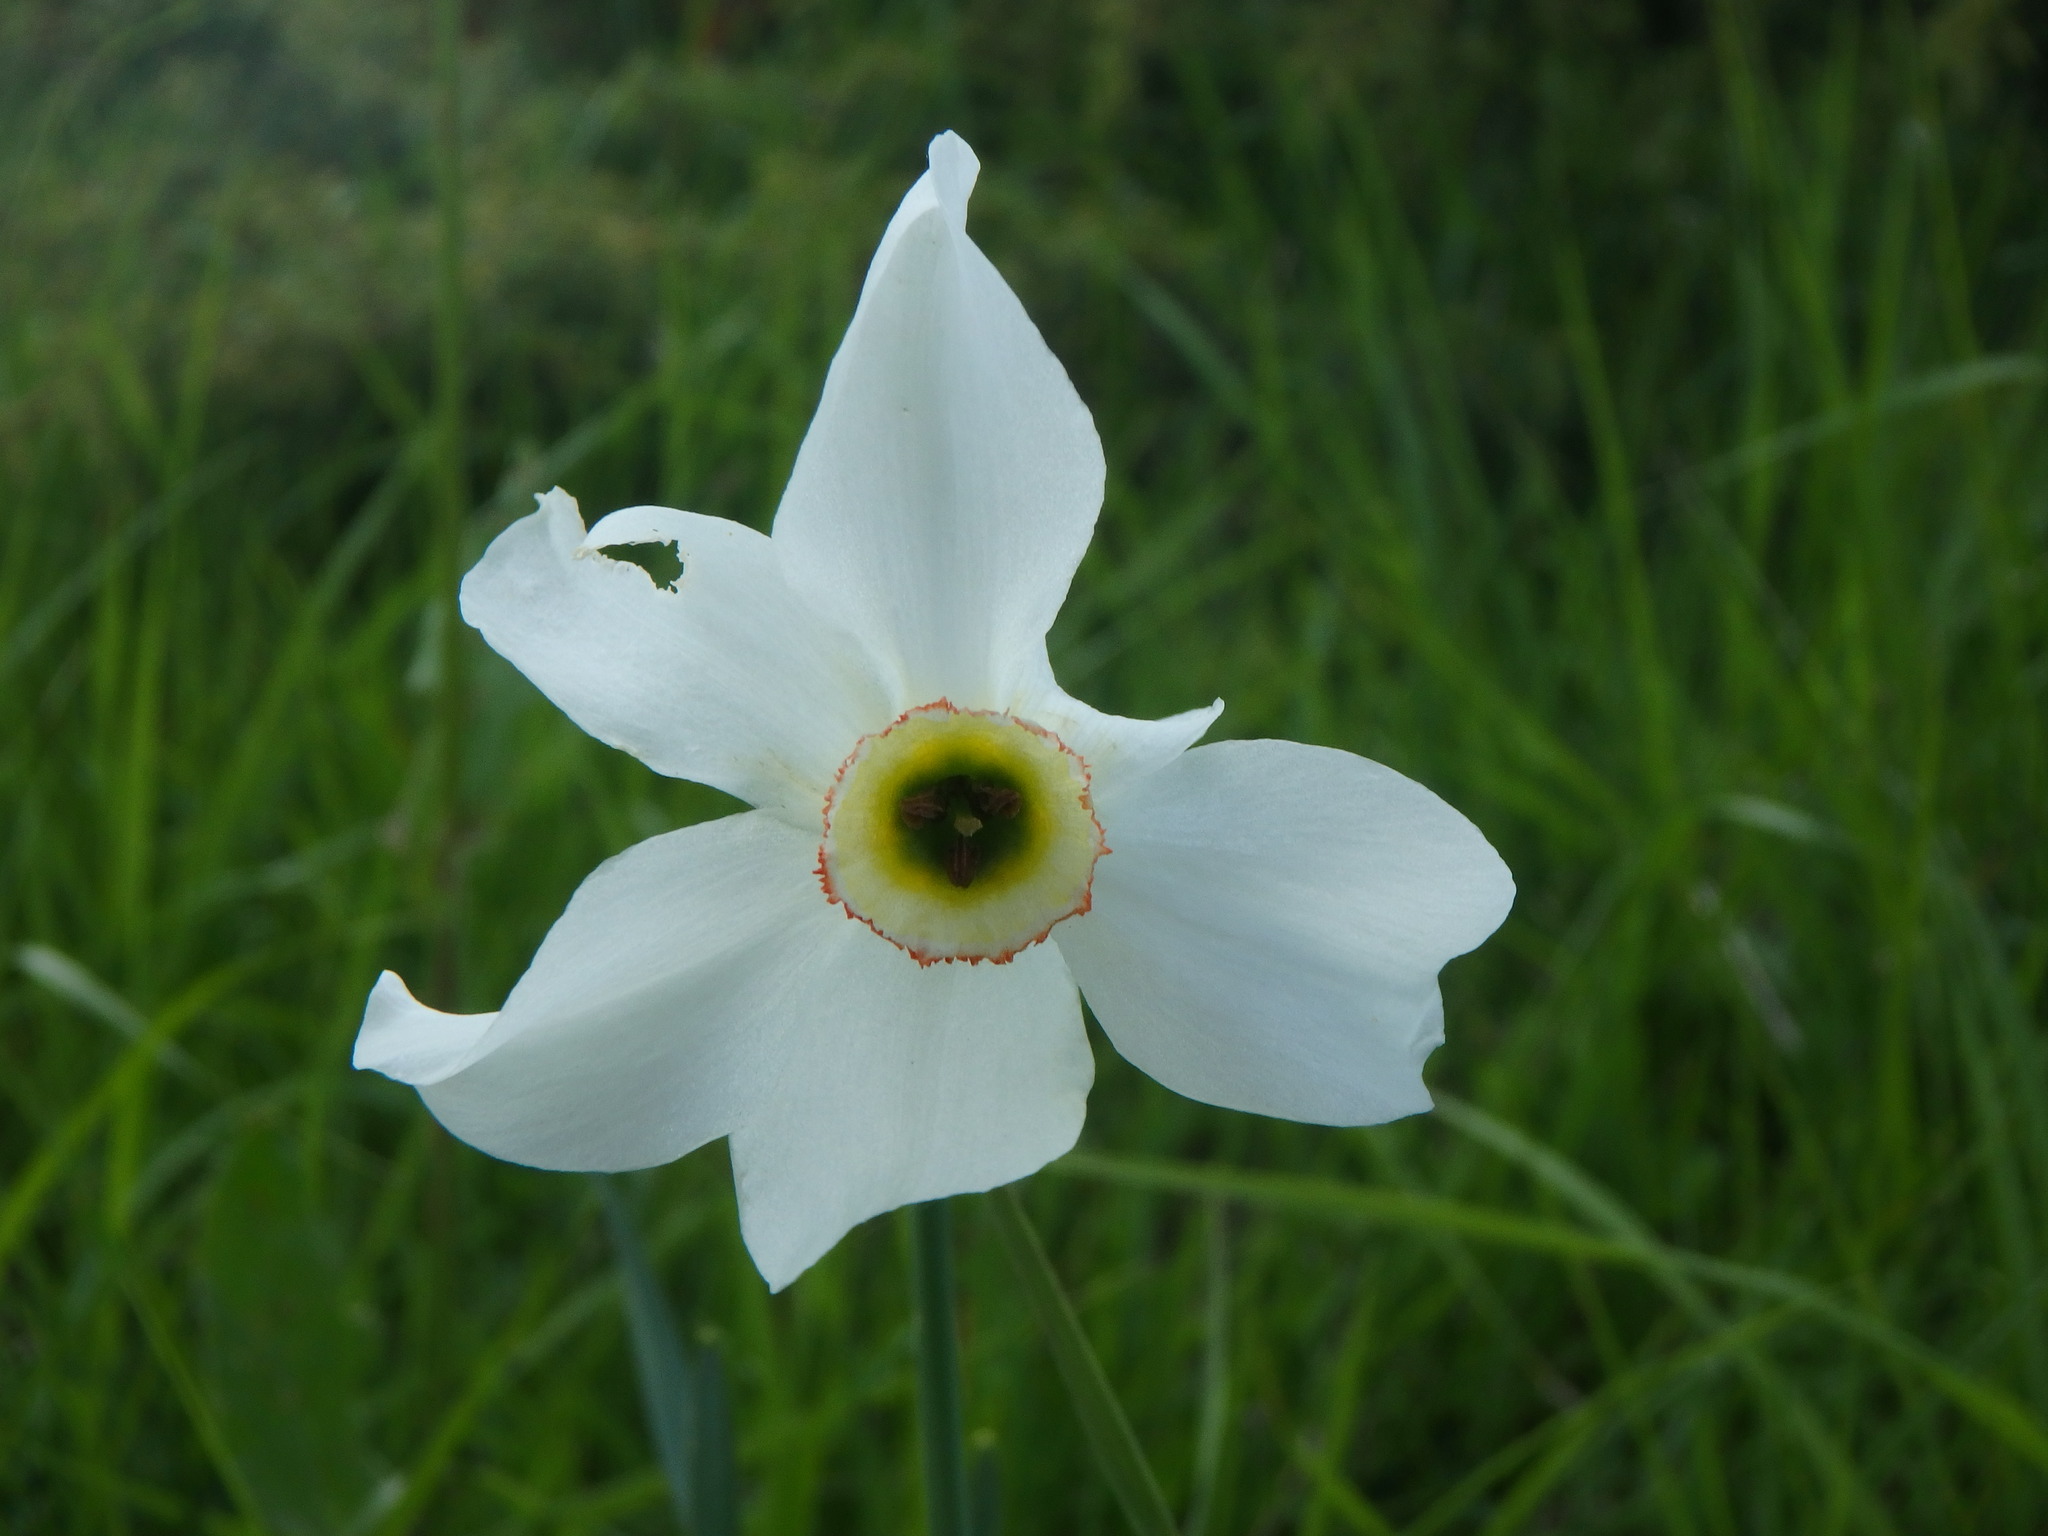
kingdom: Plantae
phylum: Tracheophyta
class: Liliopsida
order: Asparagales
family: Amaryllidaceae
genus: Narcissus
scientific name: Narcissus poeticus
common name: Pheasant's-eye daffodil
